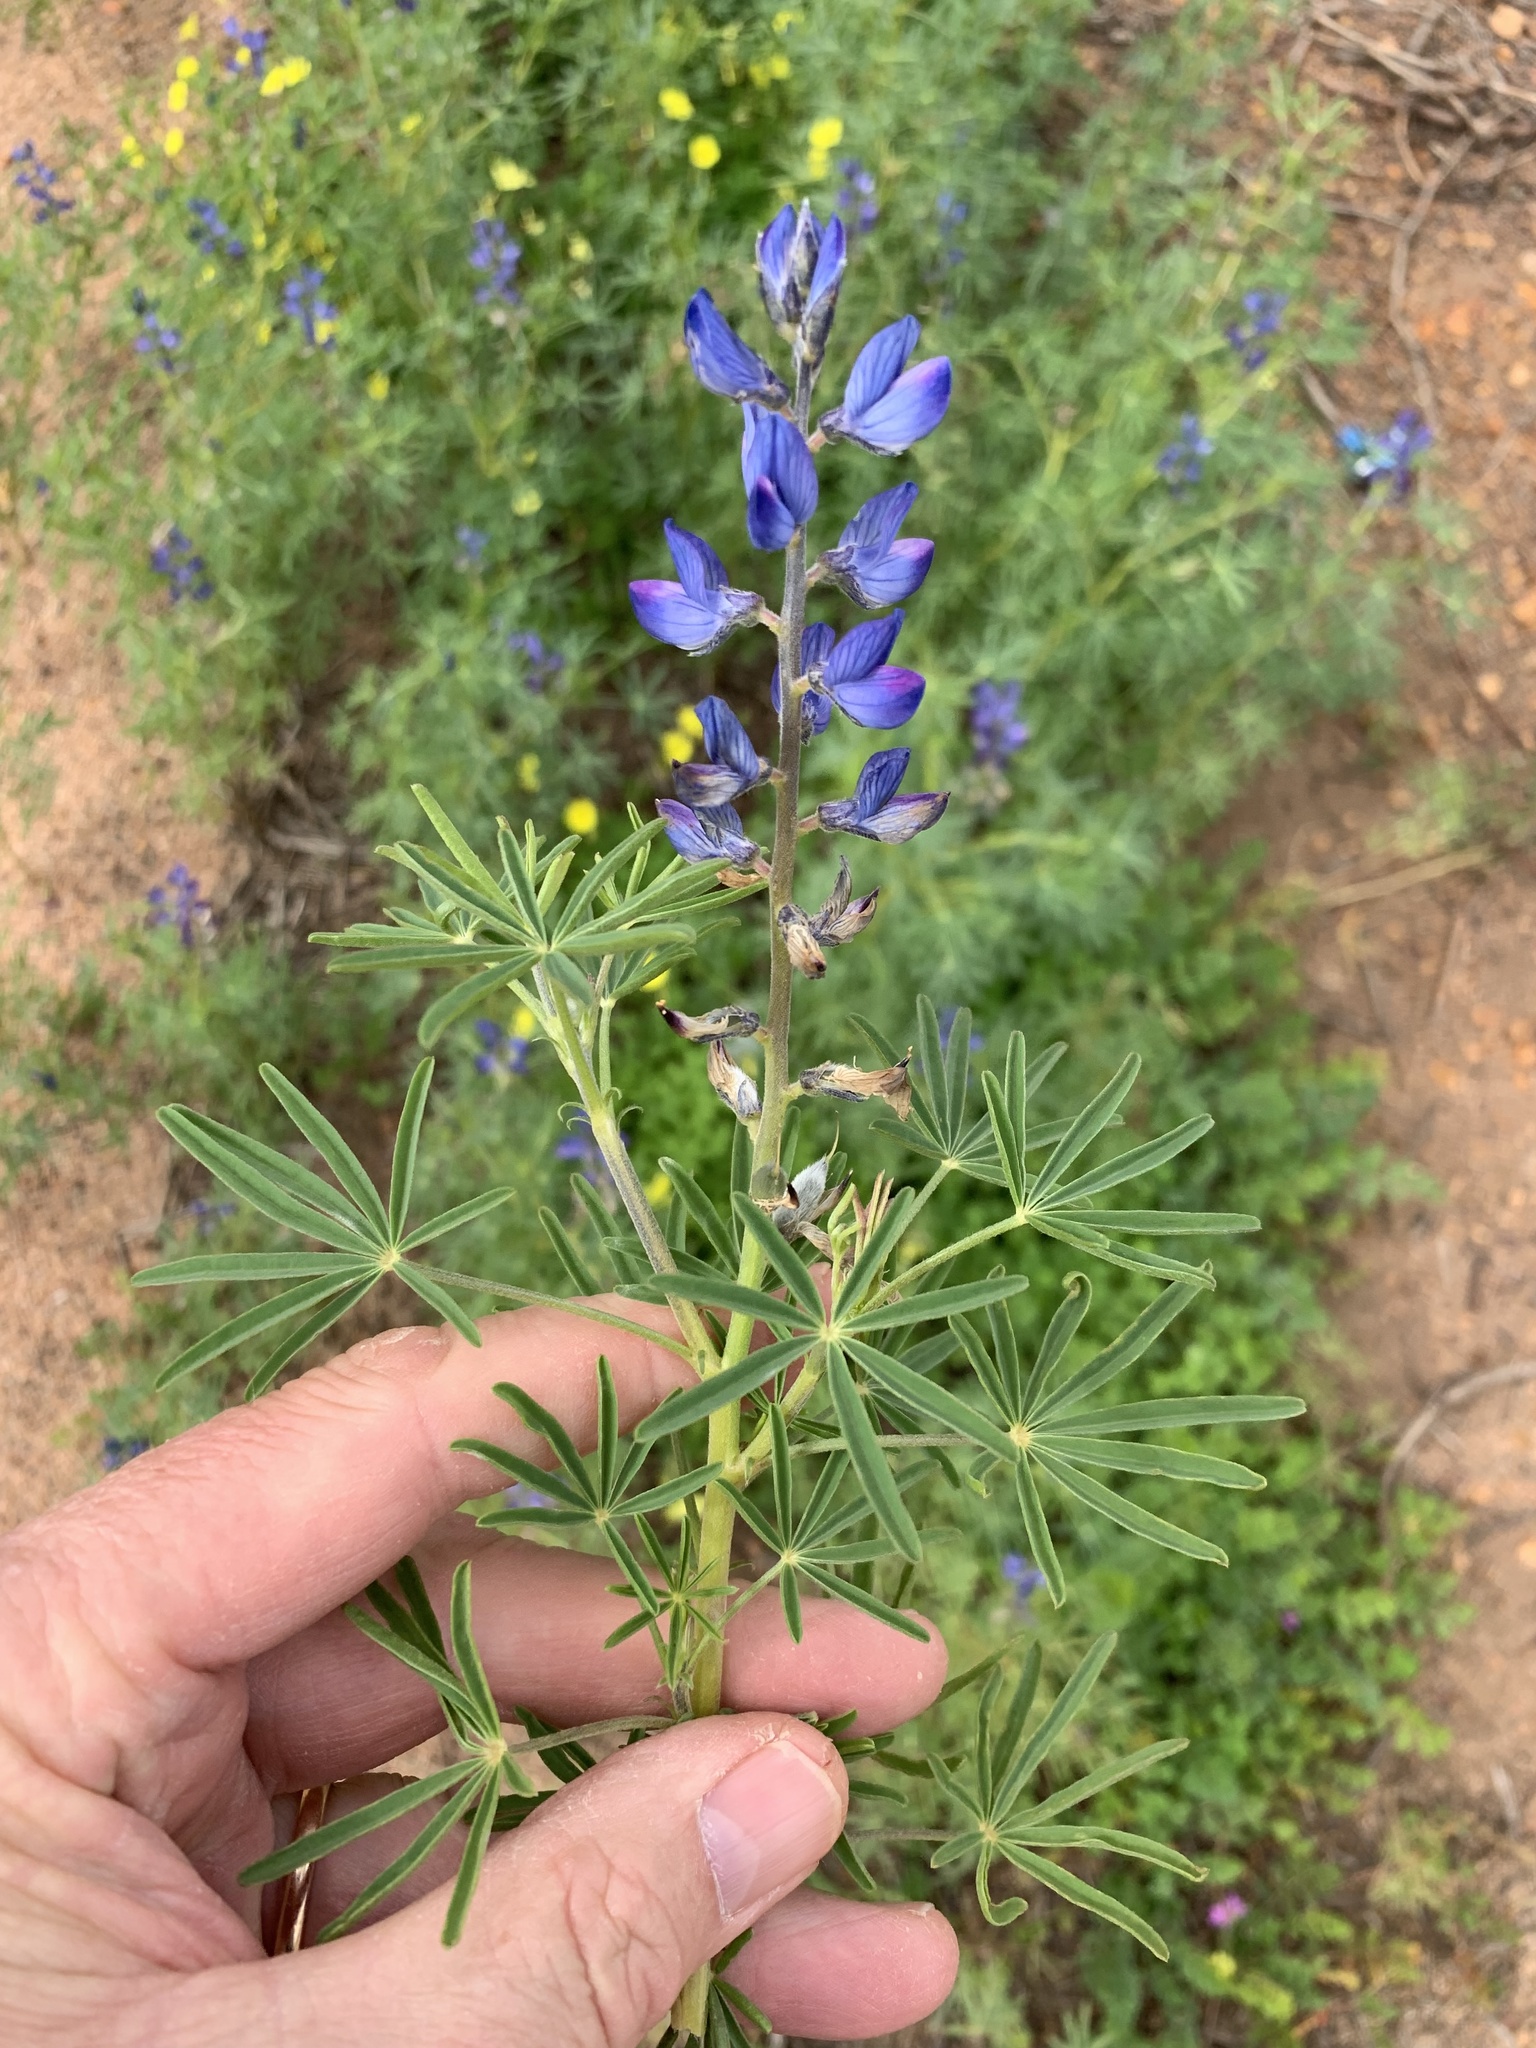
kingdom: Plantae
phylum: Tracheophyta
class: Magnoliopsida
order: Fabales
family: Fabaceae
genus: Lupinus
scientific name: Lupinus angustifolius
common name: Narrow-leaved lupin
